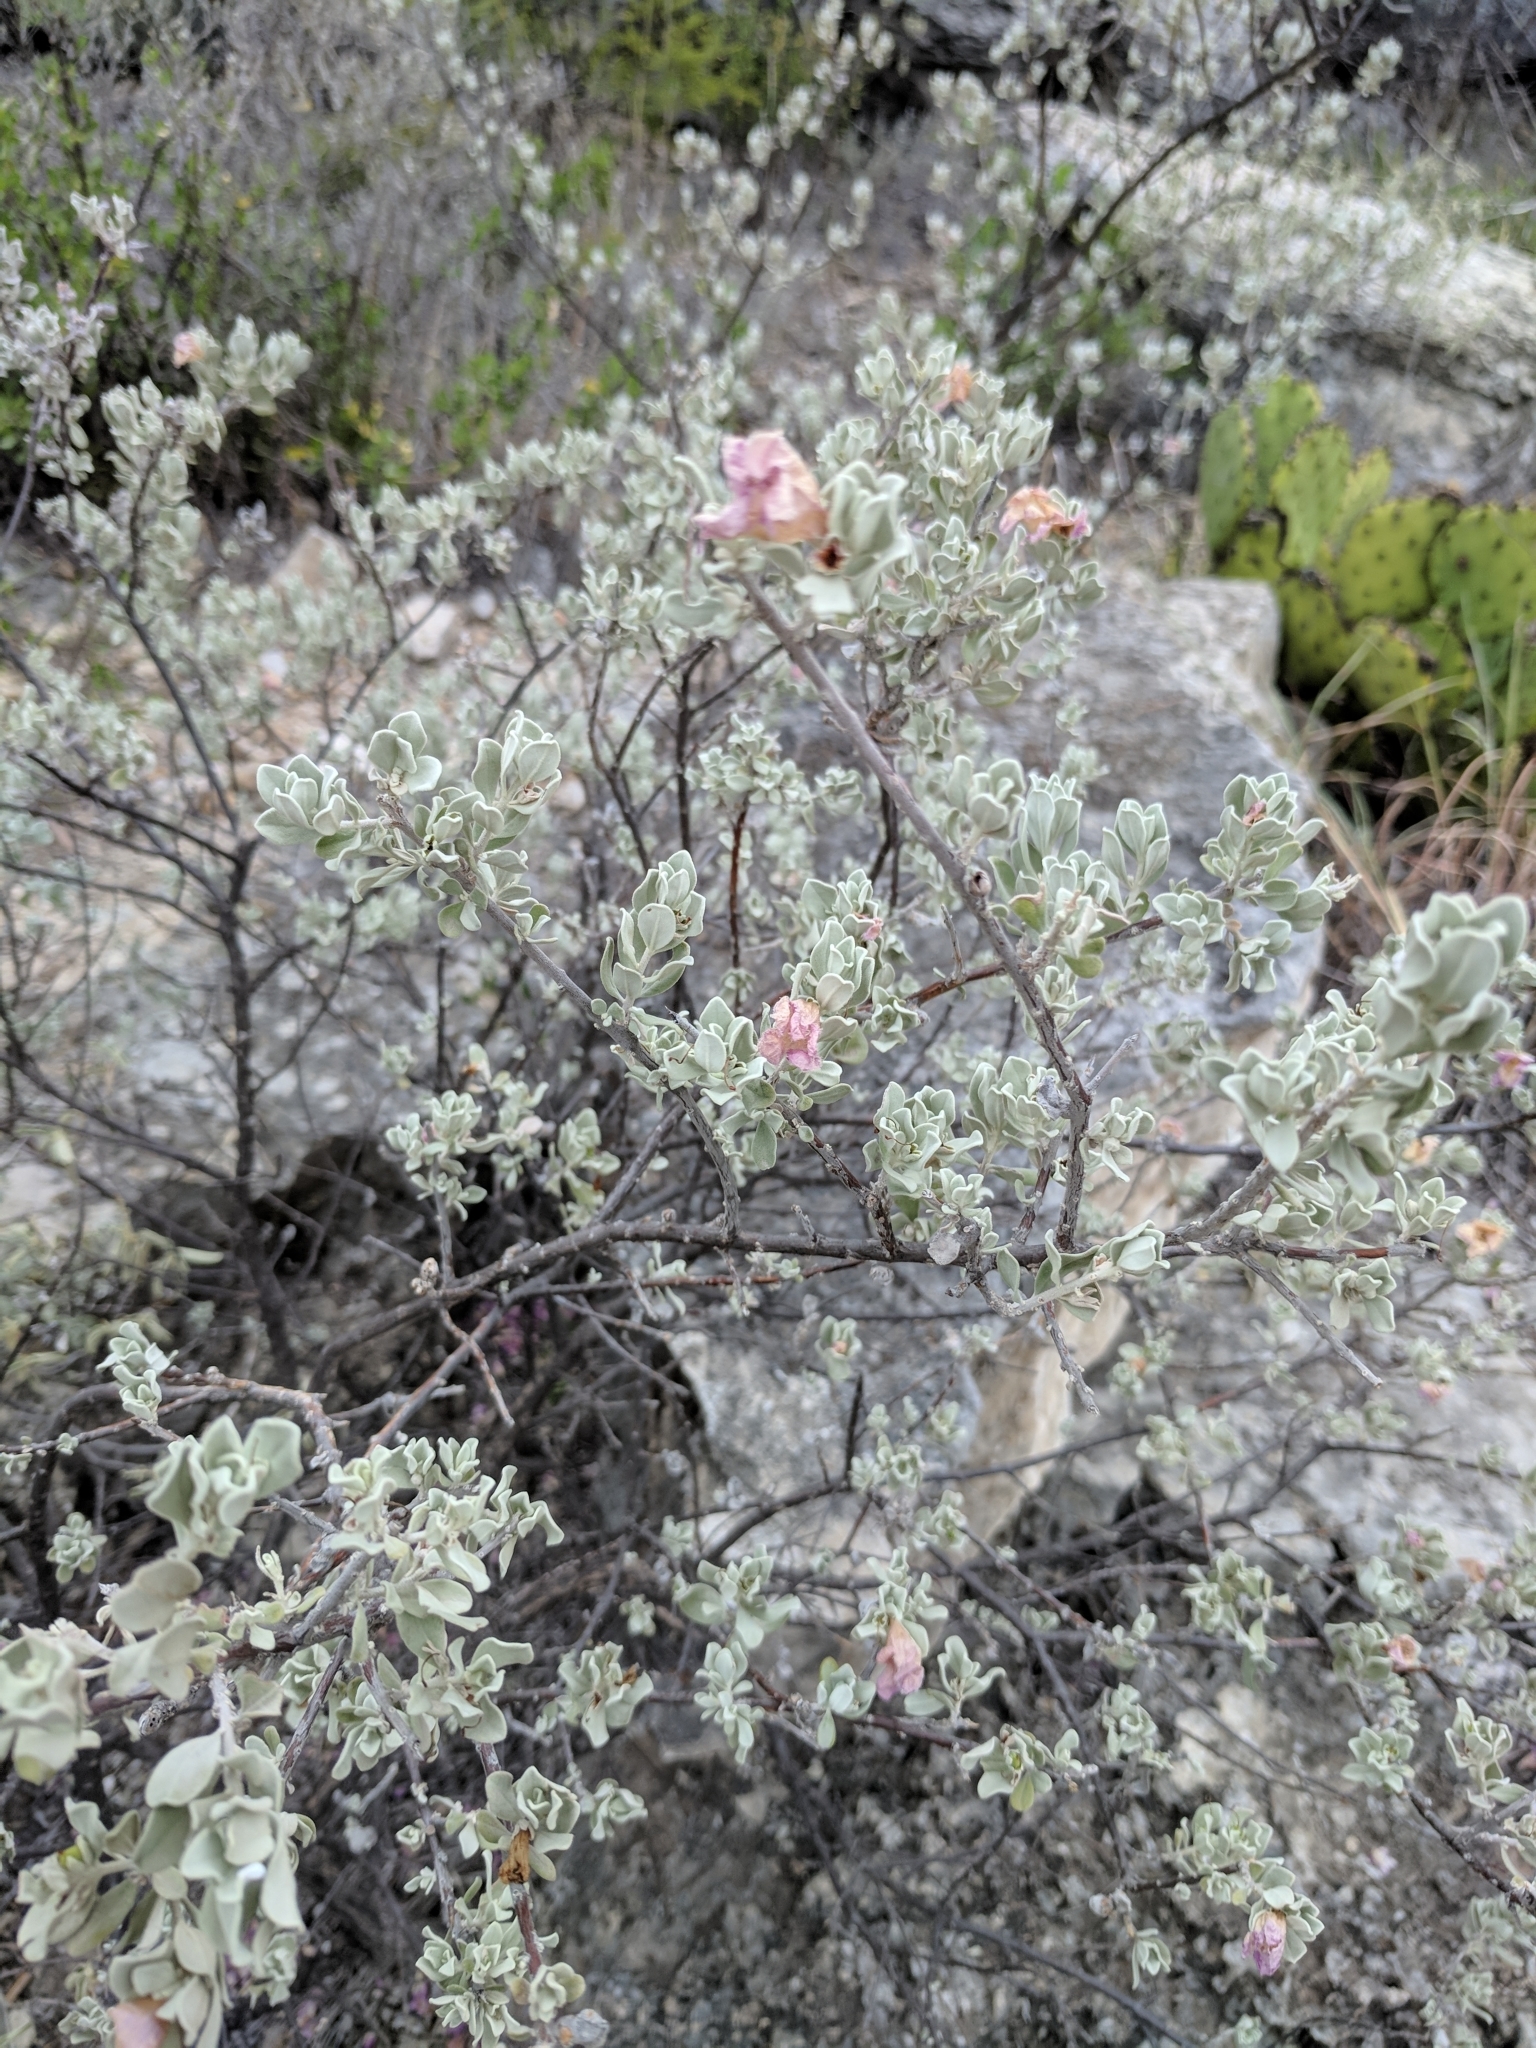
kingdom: Plantae
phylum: Tracheophyta
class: Magnoliopsida
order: Lamiales
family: Scrophulariaceae
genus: Leucophyllum
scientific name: Leucophyllum frutescens
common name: Texas silverleaf
